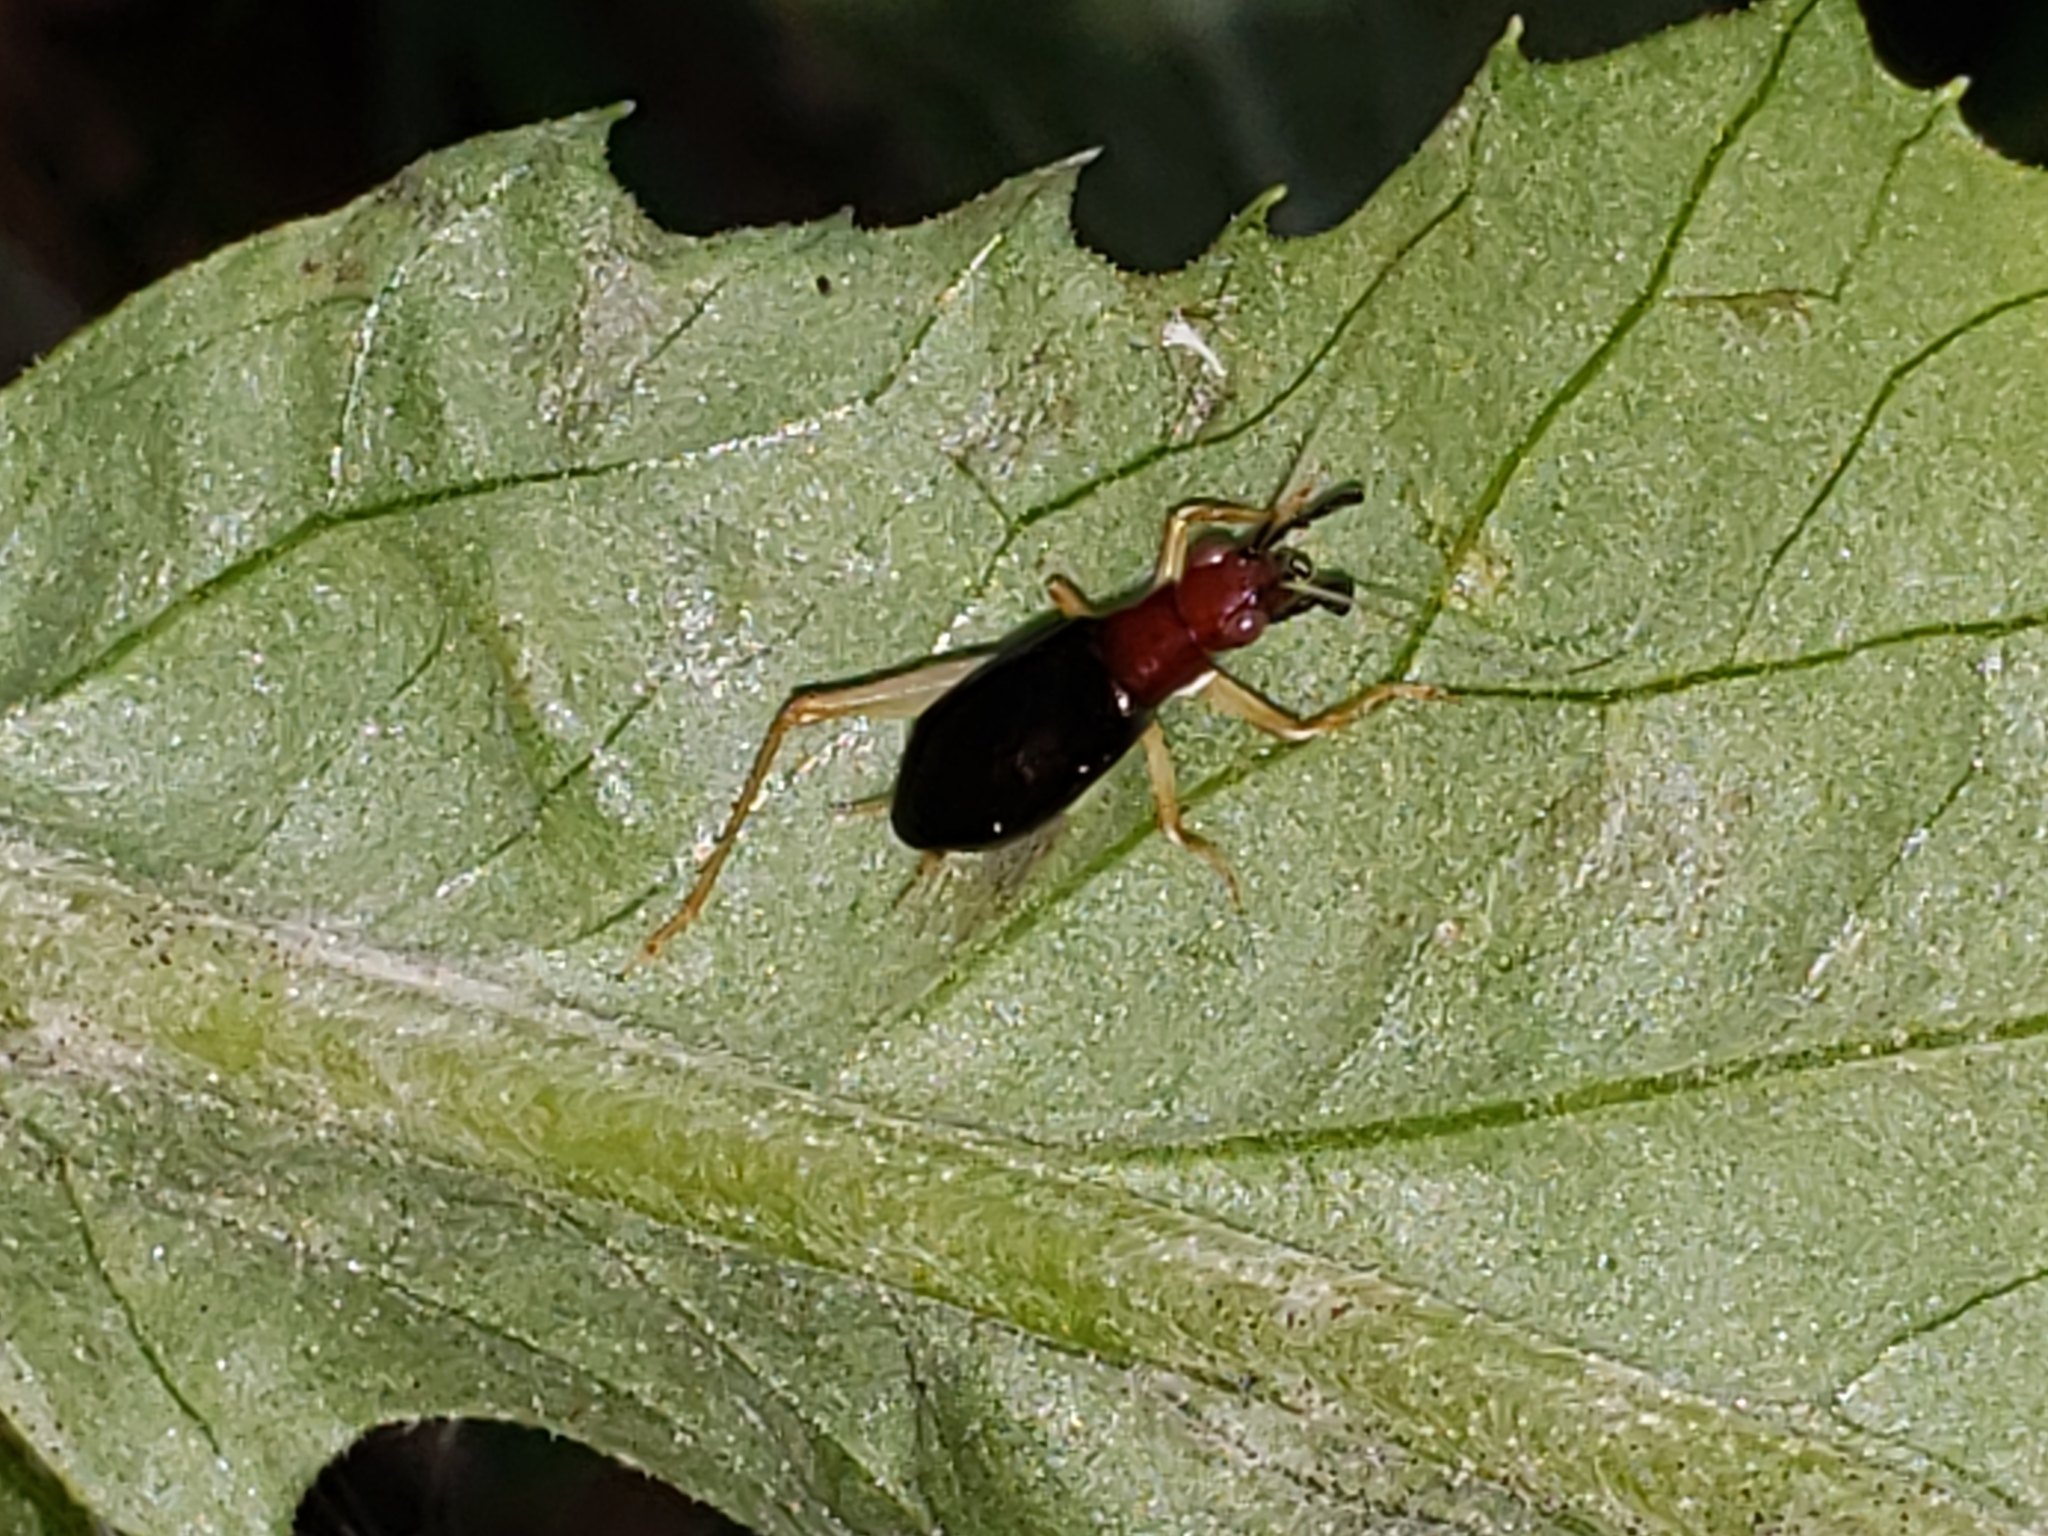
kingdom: Animalia
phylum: Arthropoda
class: Insecta
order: Orthoptera
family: Trigonidiidae
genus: Phyllopalpus
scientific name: Phyllopalpus pulchellus
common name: Handsome trig
